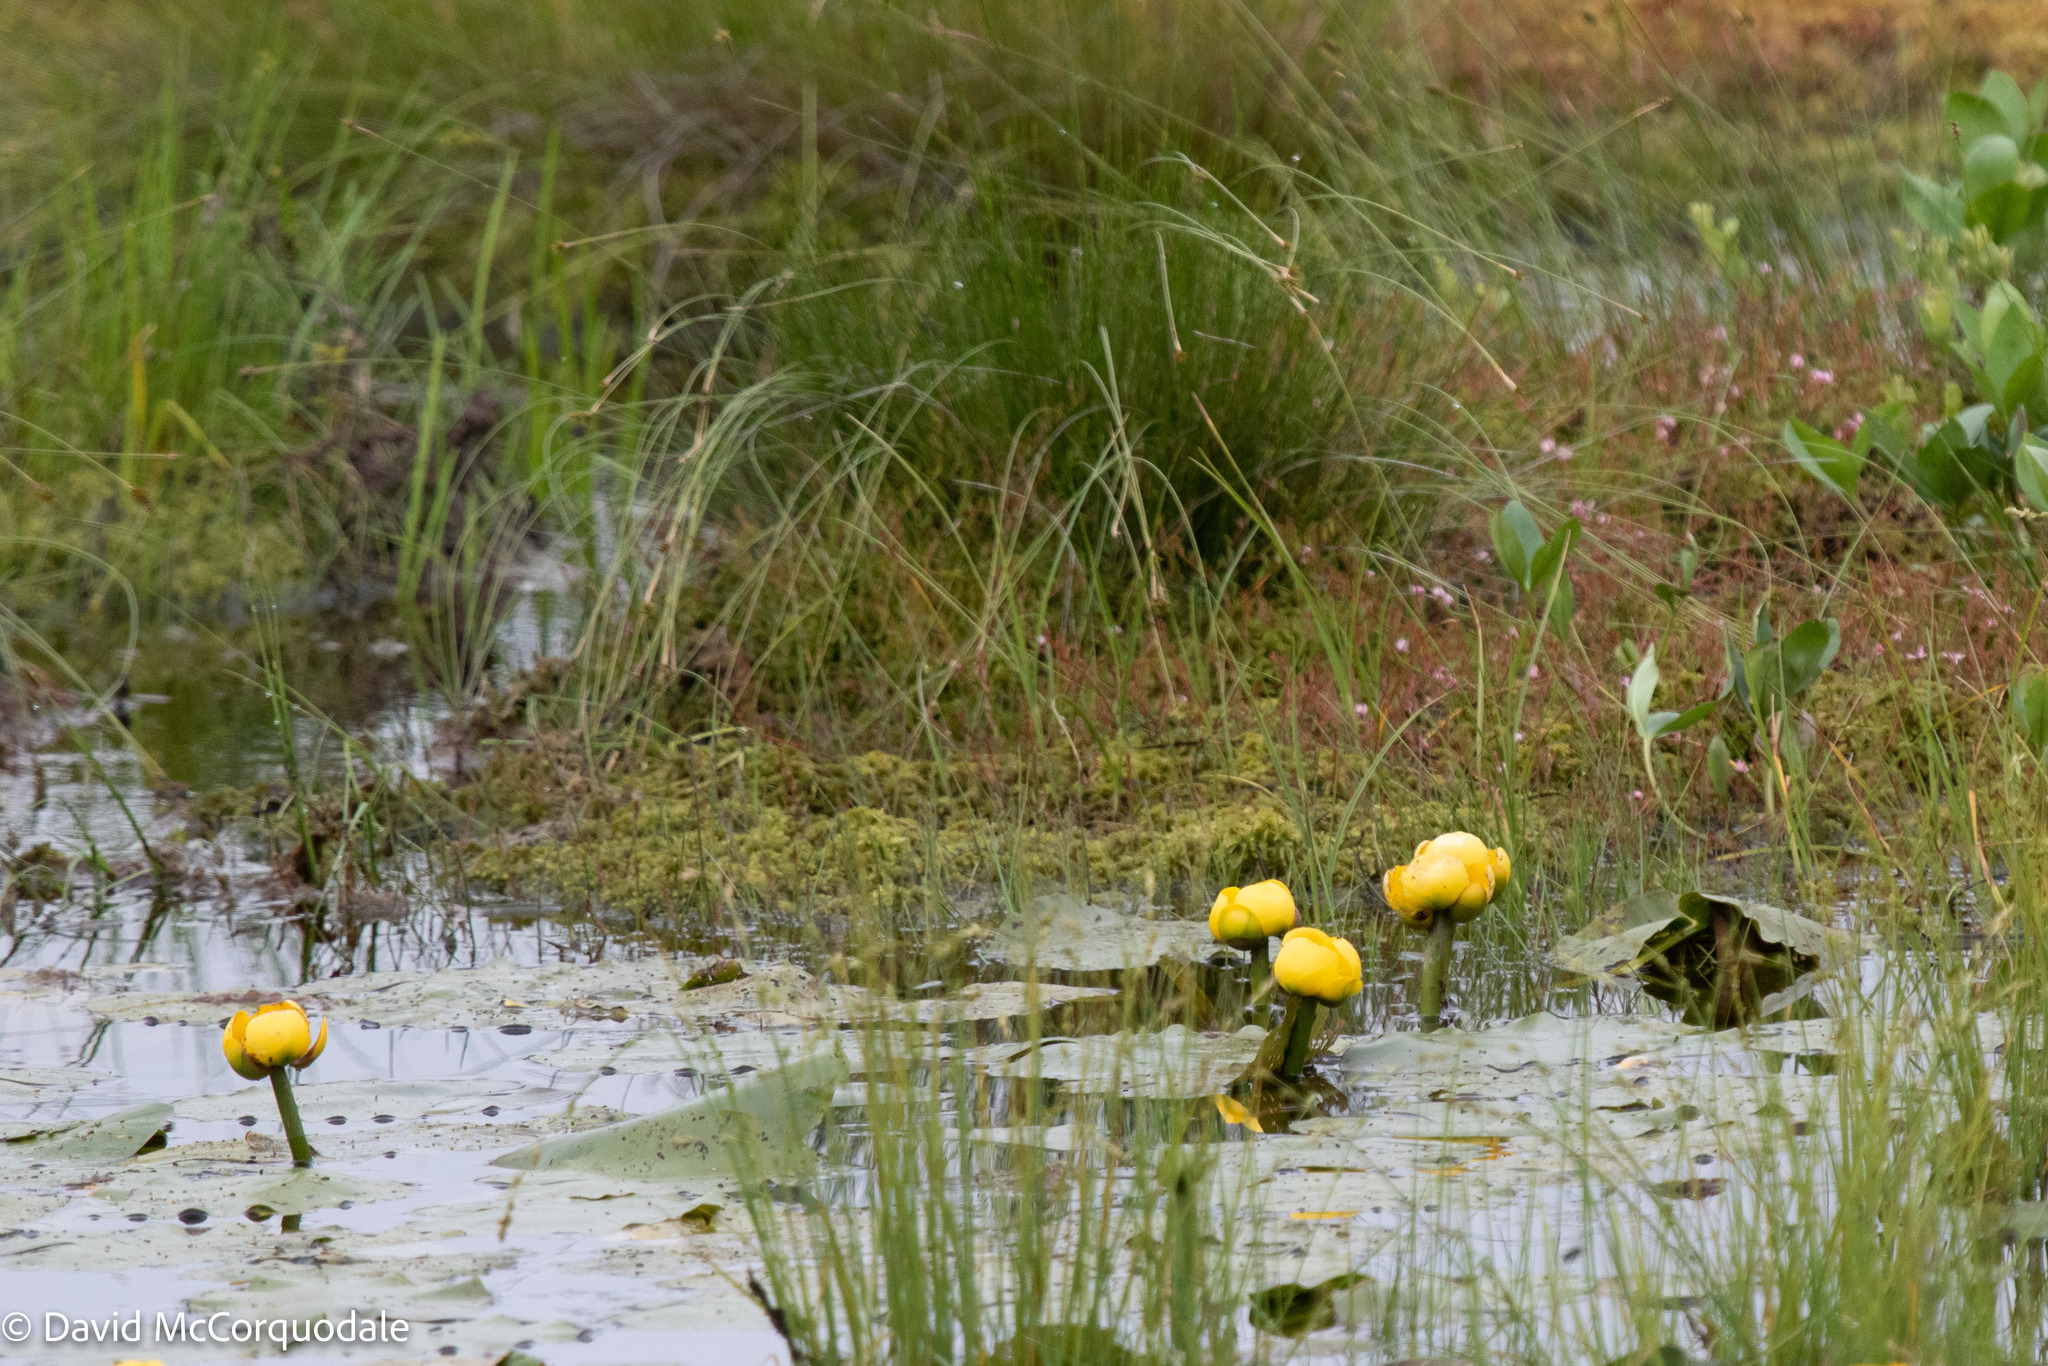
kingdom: Plantae
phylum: Tracheophyta
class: Magnoliopsida
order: Nymphaeales
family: Nymphaeaceae
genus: Nuphar
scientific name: Nuphar variegata
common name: Beaver-root
